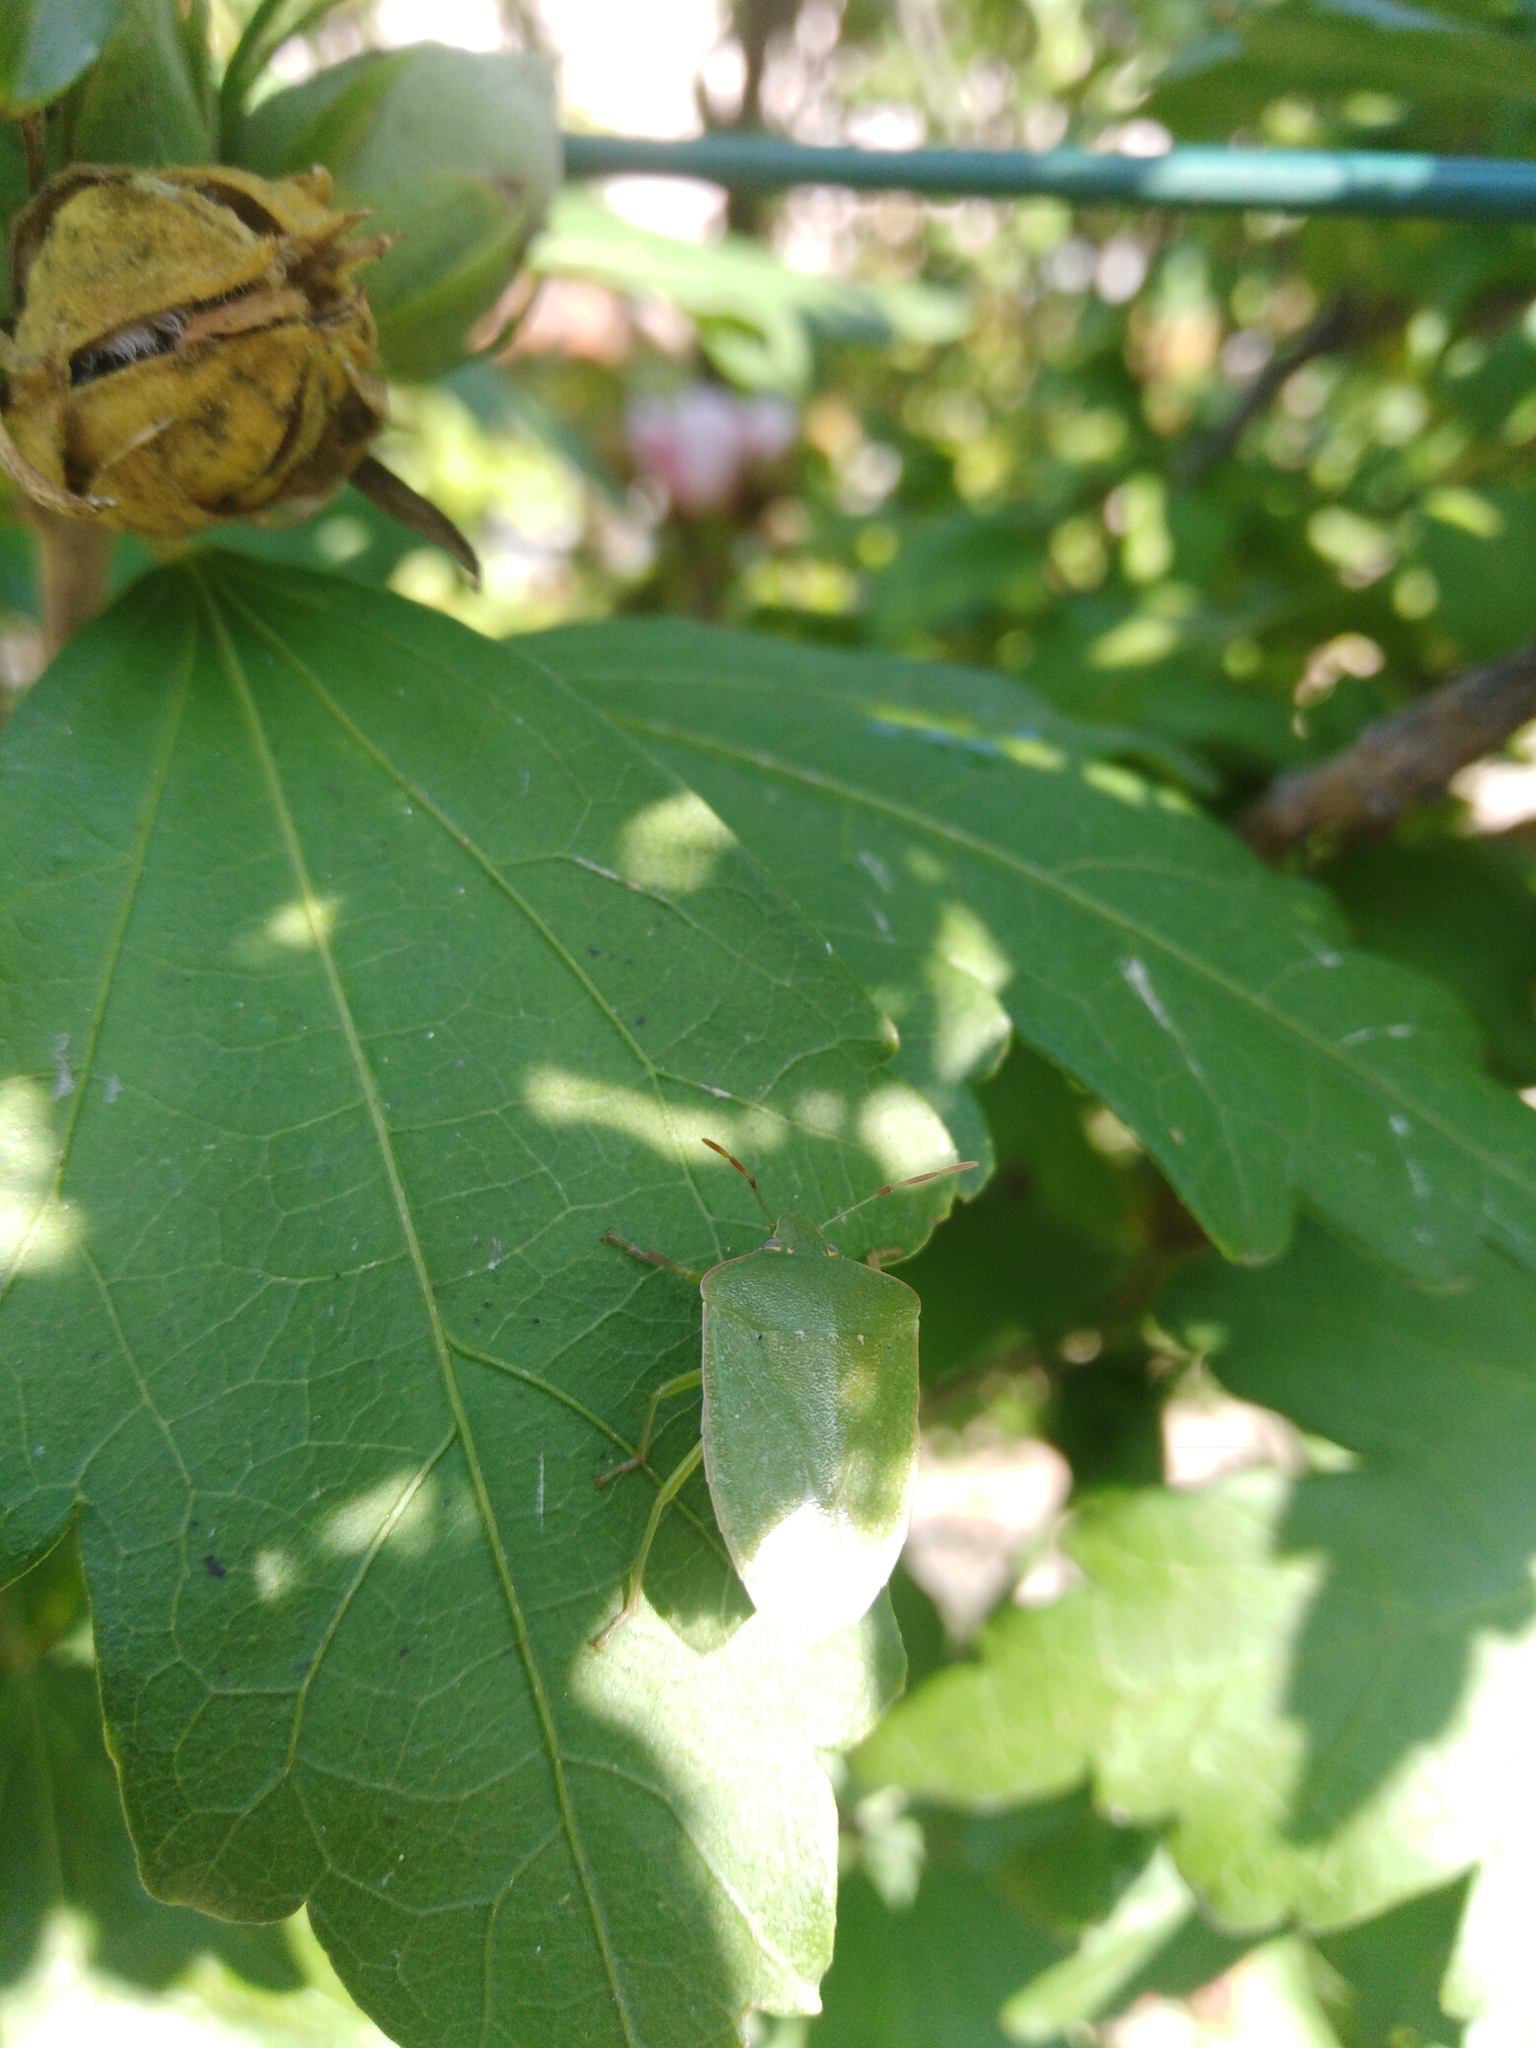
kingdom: Animalia
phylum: Arthropoda
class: Insecta
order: Hemiptera
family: Pentatomidae
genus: Nezara
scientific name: Nezara viridula
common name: Southern green stink bug
